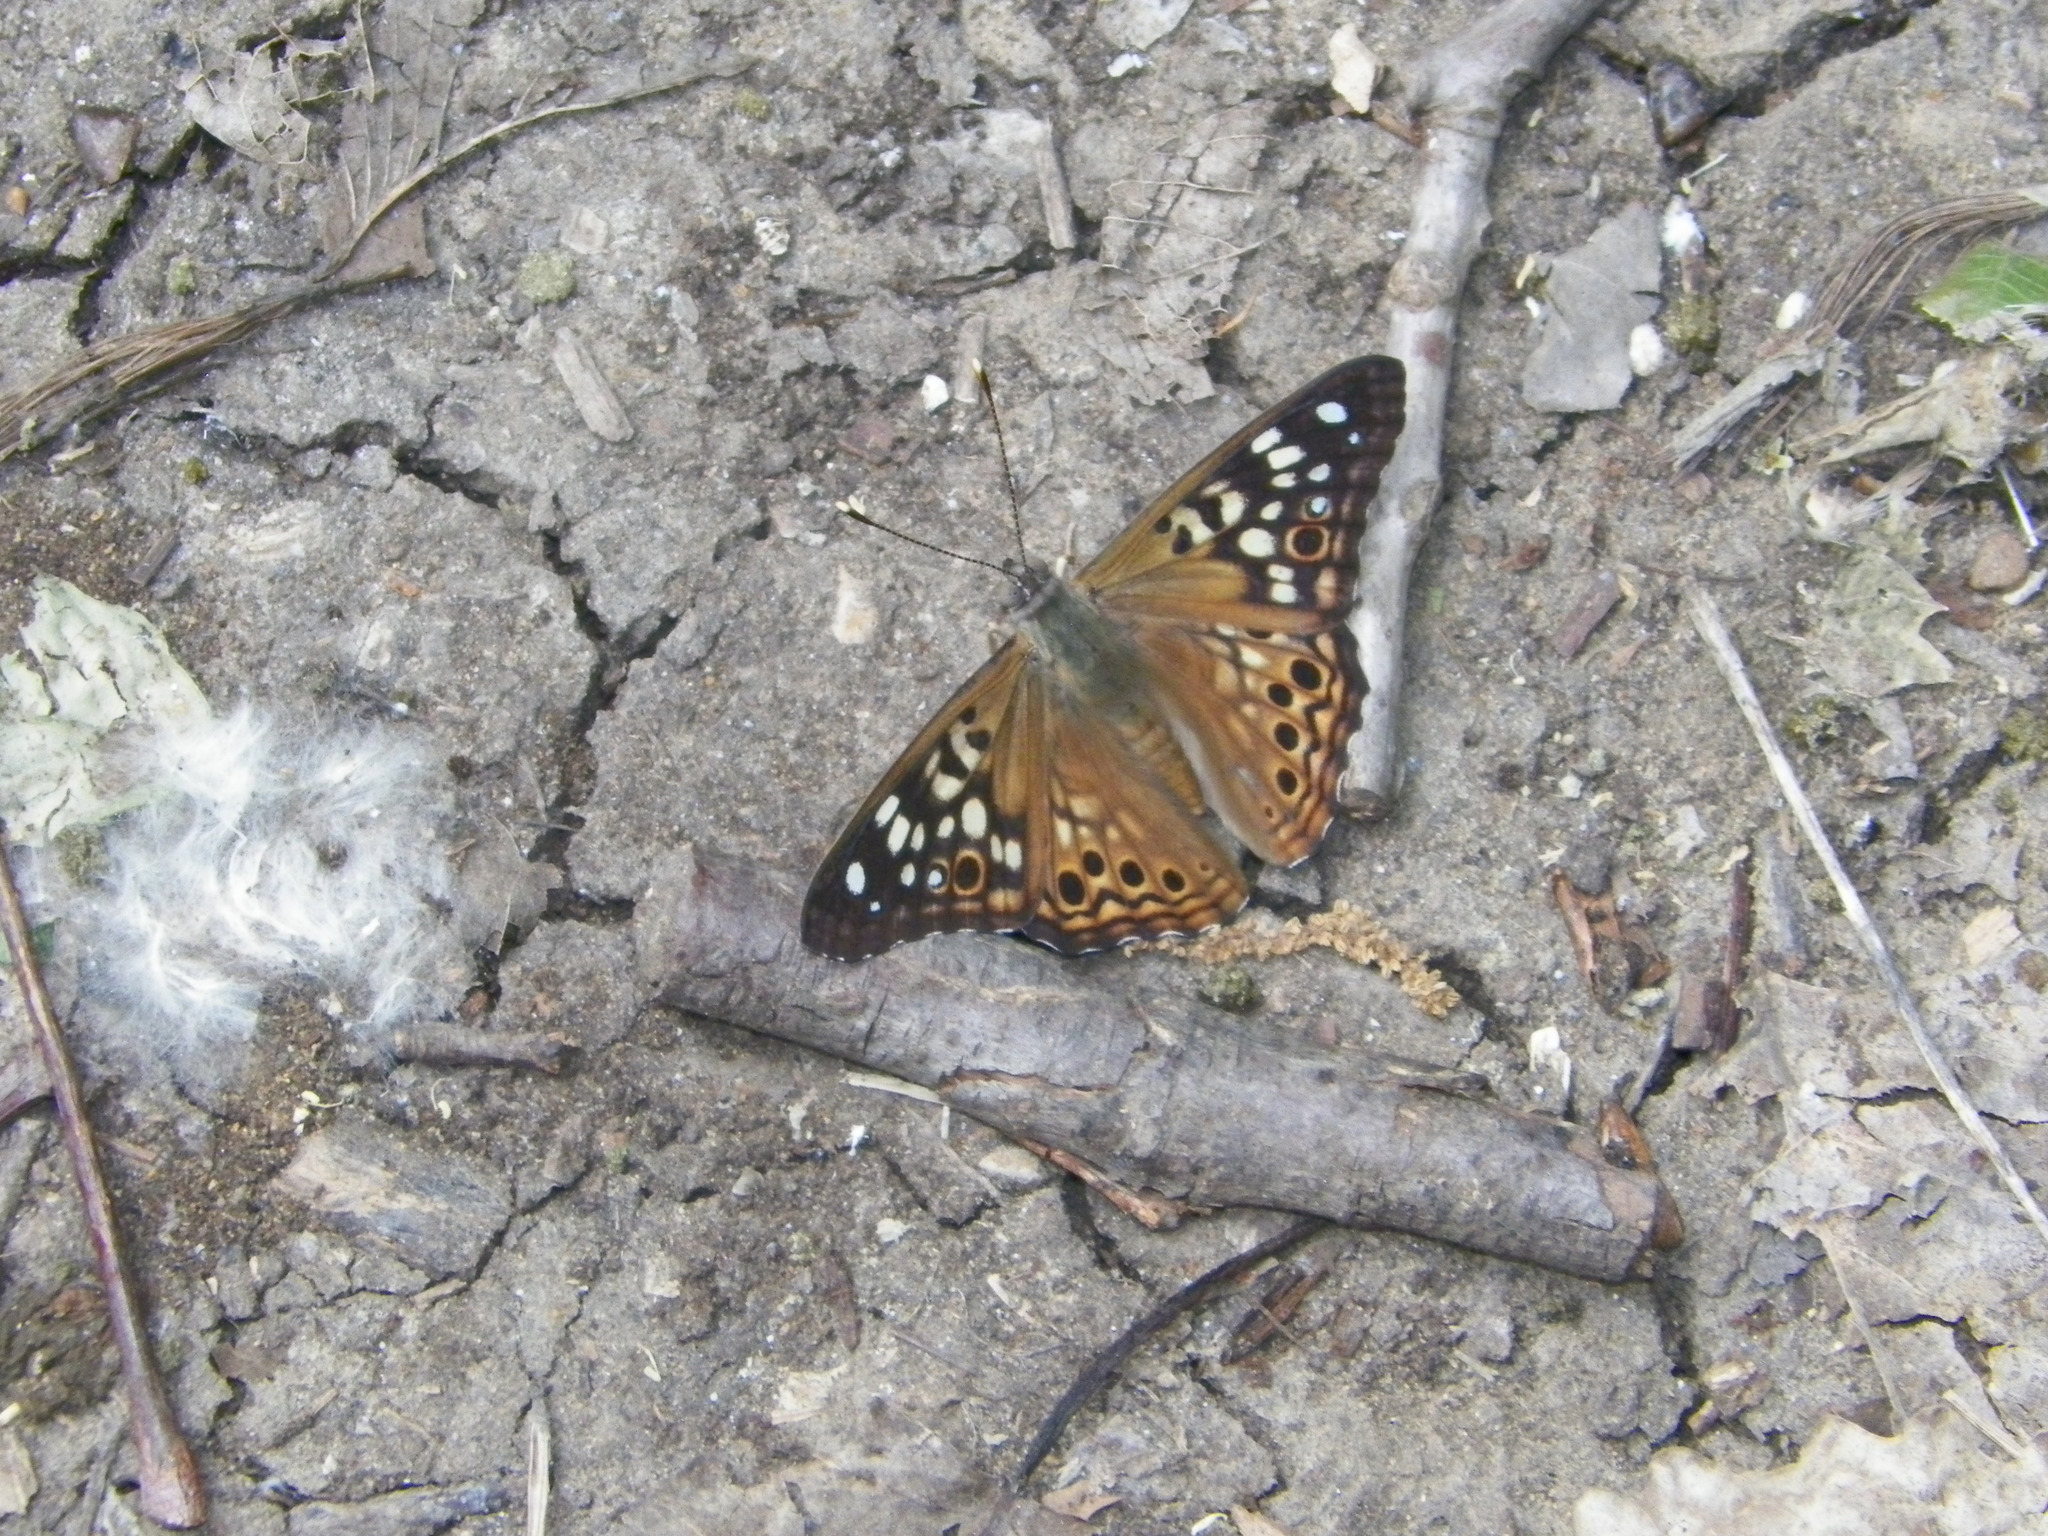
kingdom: Animalia
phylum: Arthropoda
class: Insecta
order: Lepidoptera
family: Nymphalidae
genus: Asterocampa
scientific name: Asterocampa celtis
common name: Hackberry emperor
